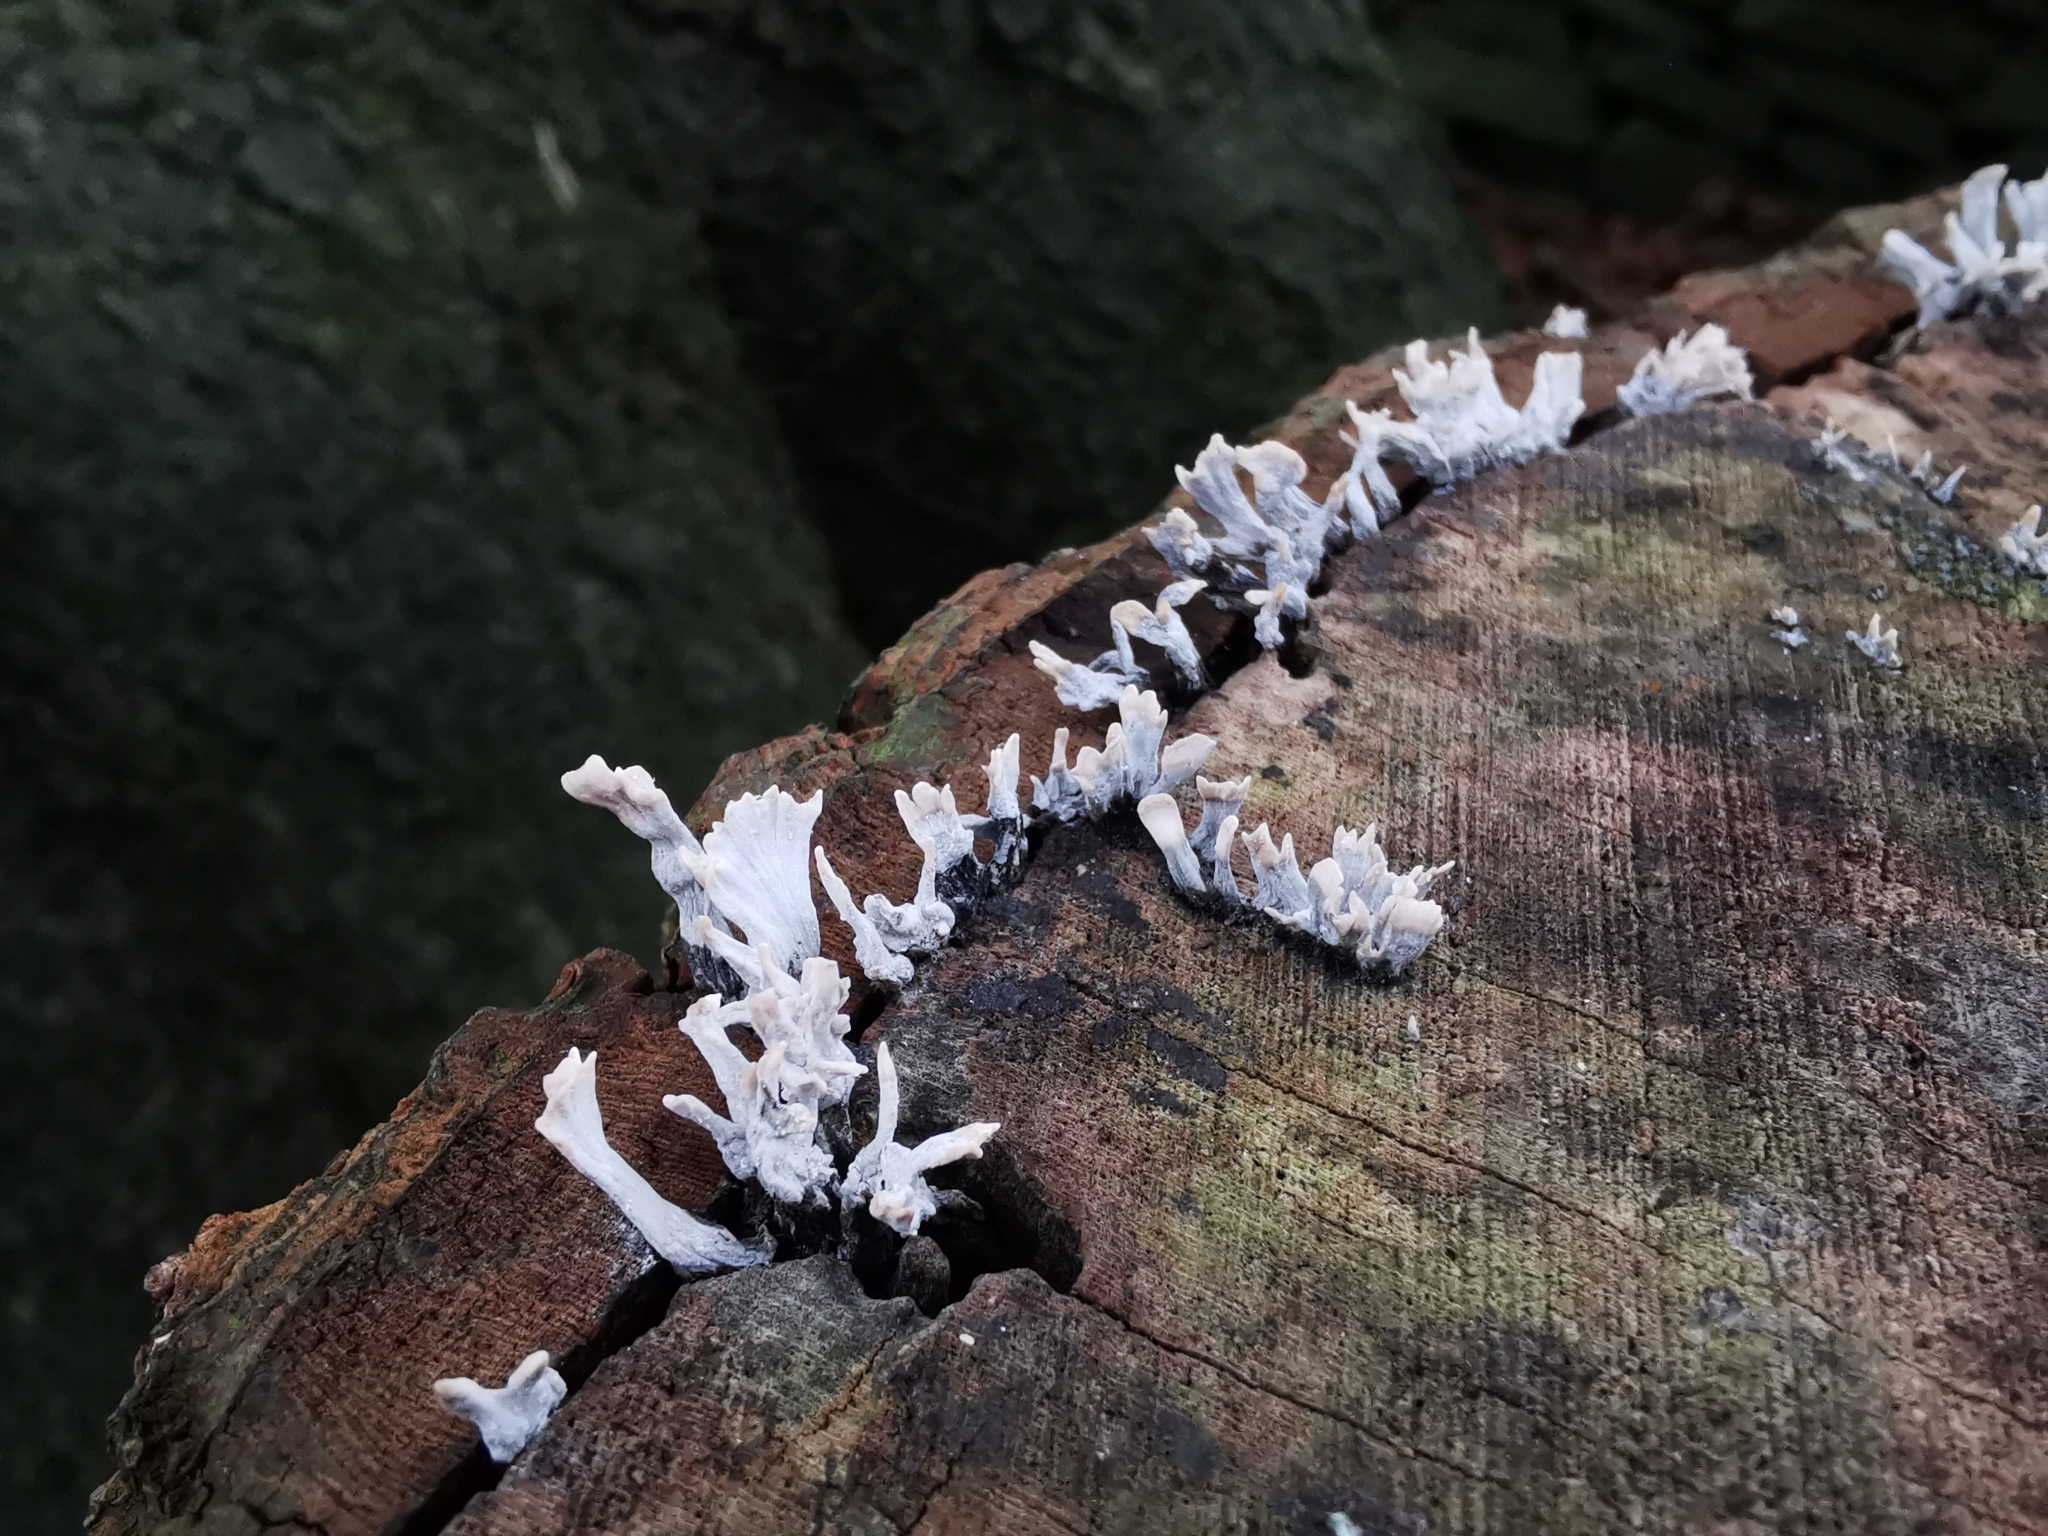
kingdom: Fungi
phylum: Ascomycota
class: Sordariomycetes
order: Xylariales
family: Xylariaceae
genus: Xylaria
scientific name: Xylaria hypoxylon
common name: Candle-snuff fungus
